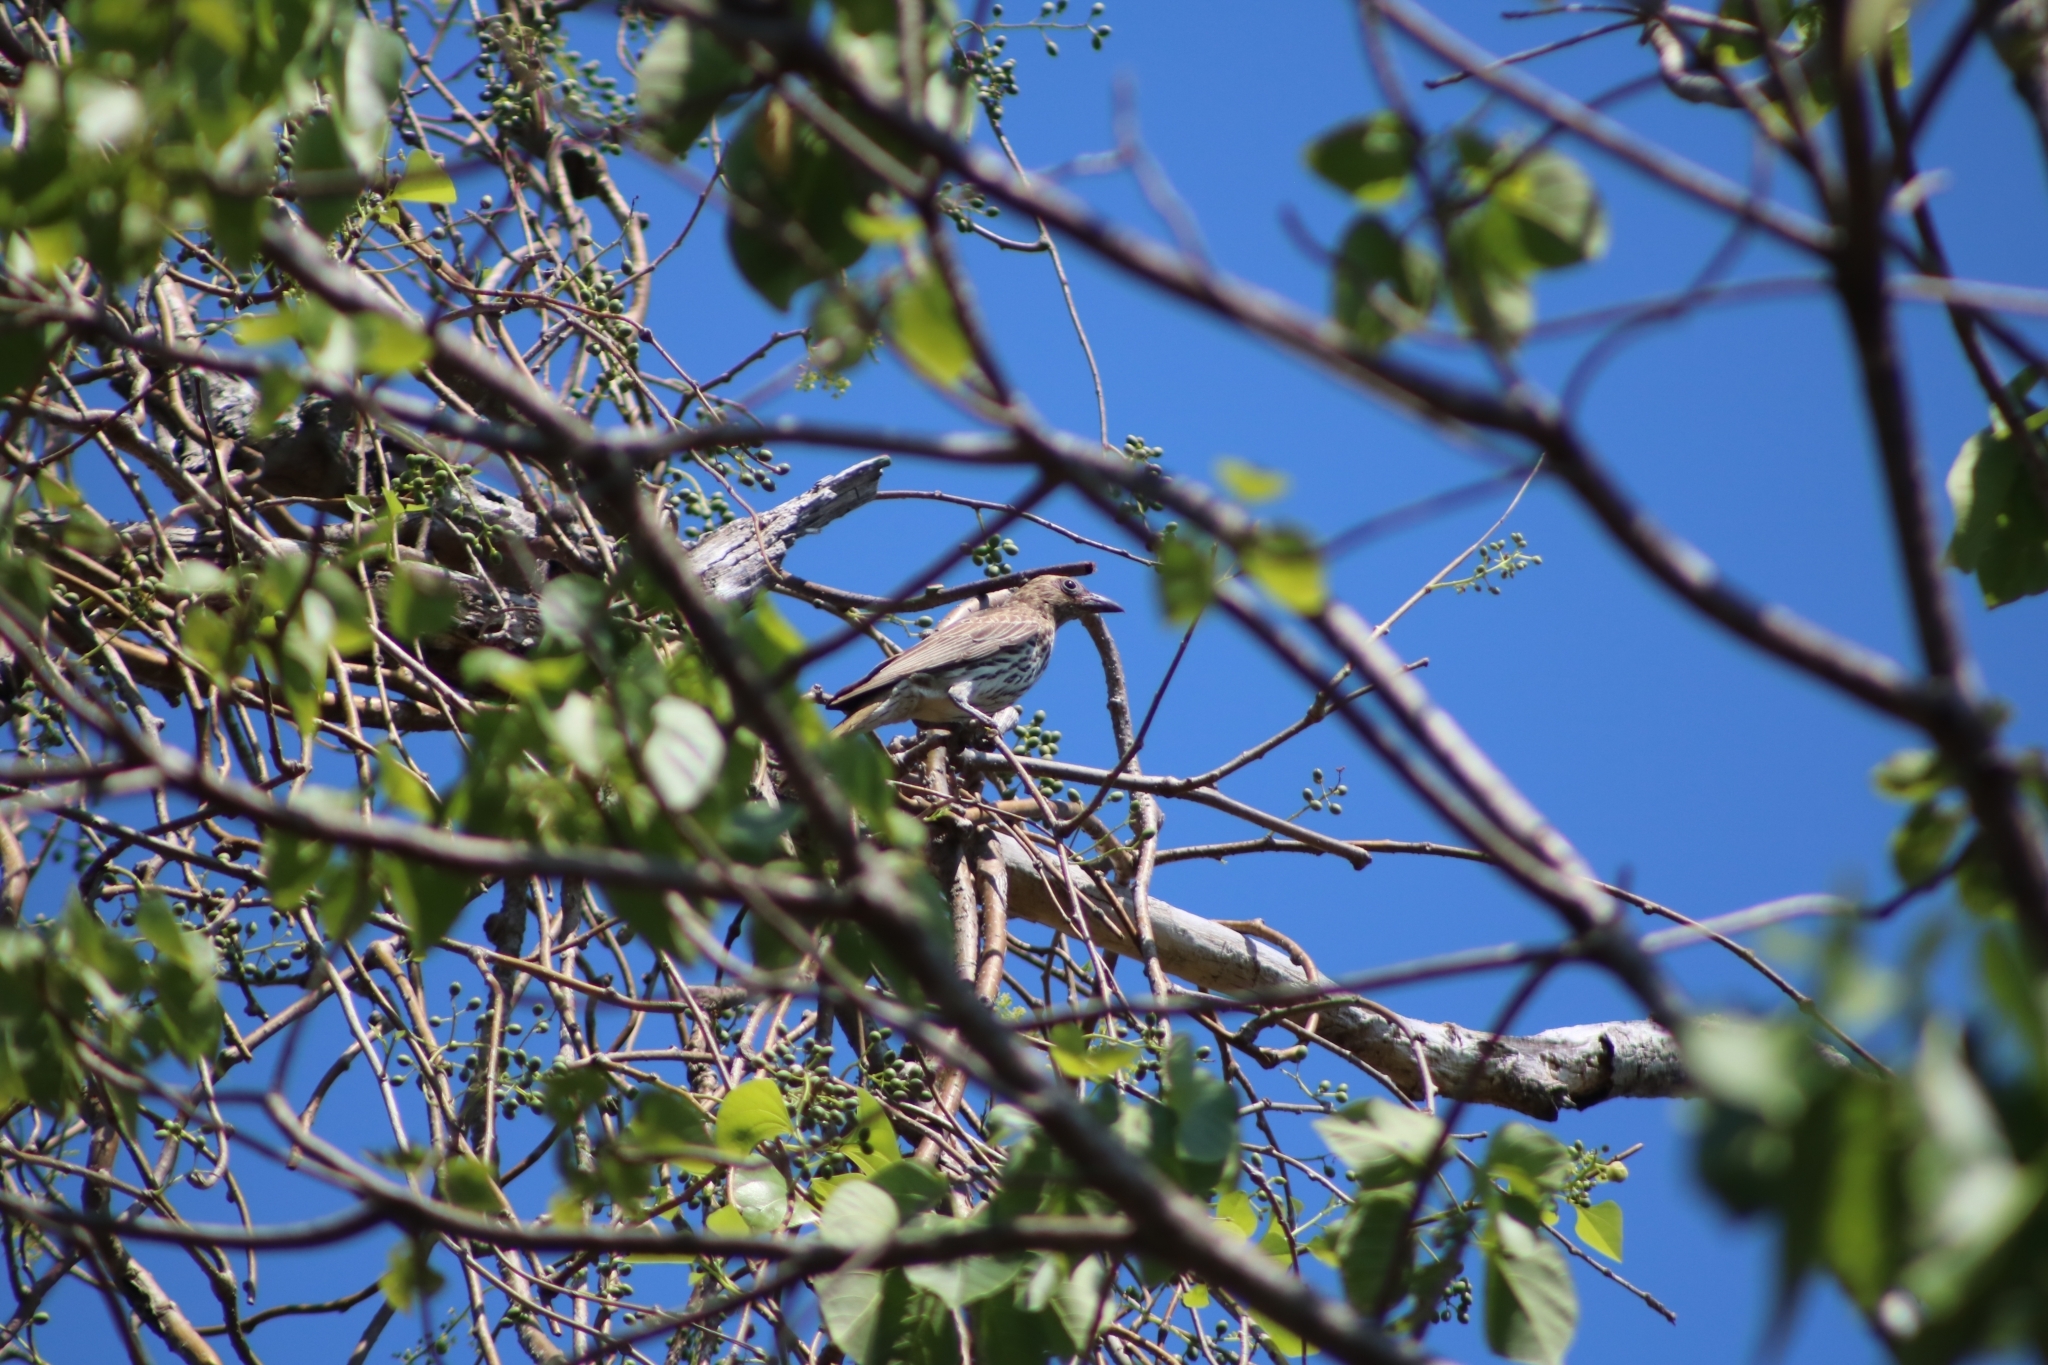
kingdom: Animalia
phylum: Chordata
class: Aves
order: Passeriformes
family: Oriolidae
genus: Sphecotheres
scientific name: Sphecotheres vieilloti
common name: Australasian figbird
